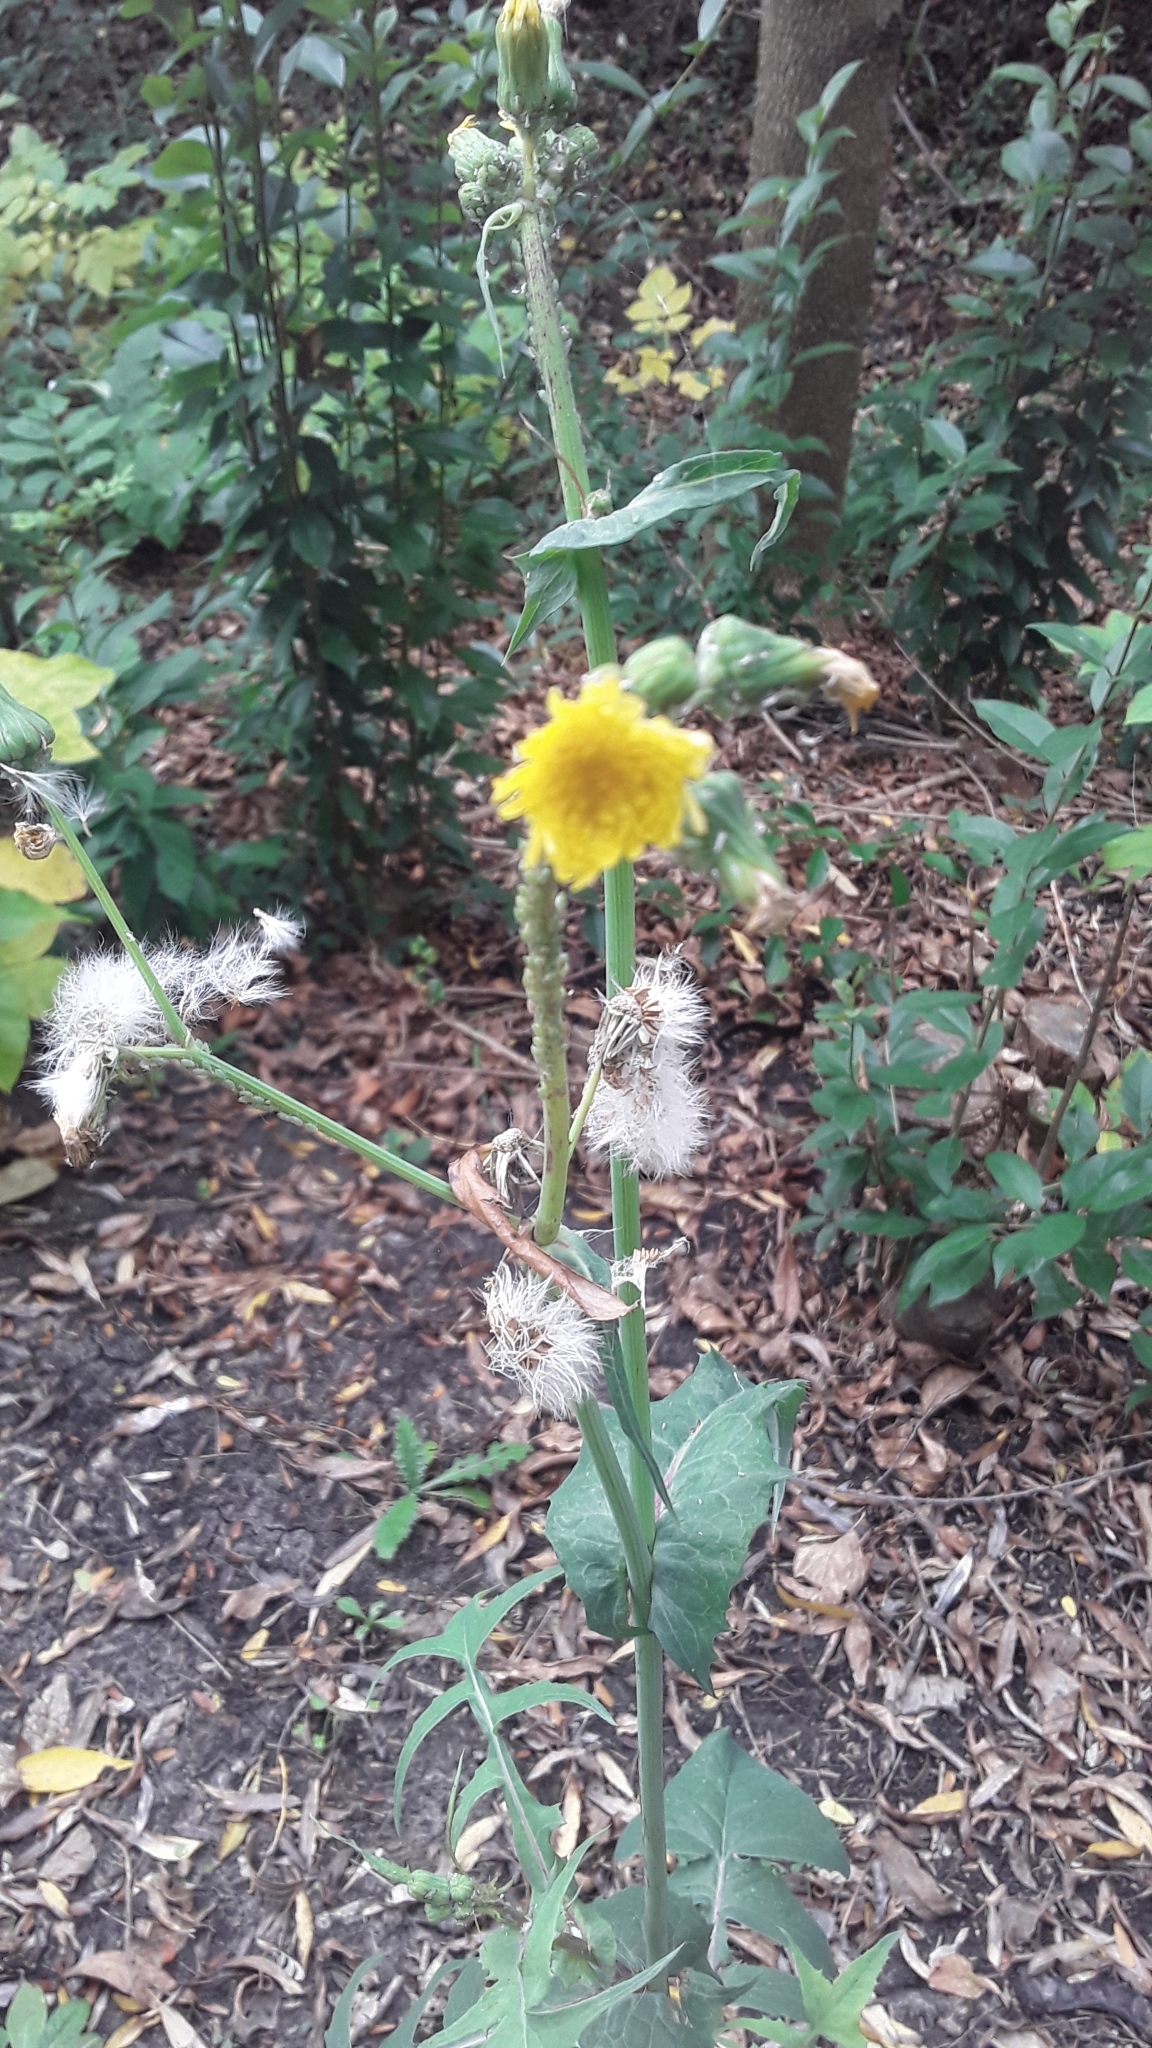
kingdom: Plantae
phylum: Tracheophyta
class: Magnoliopsida
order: Asterales
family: Asteraceae
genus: Sonchus
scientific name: Sonchus oleraceus
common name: Common sowthistle
